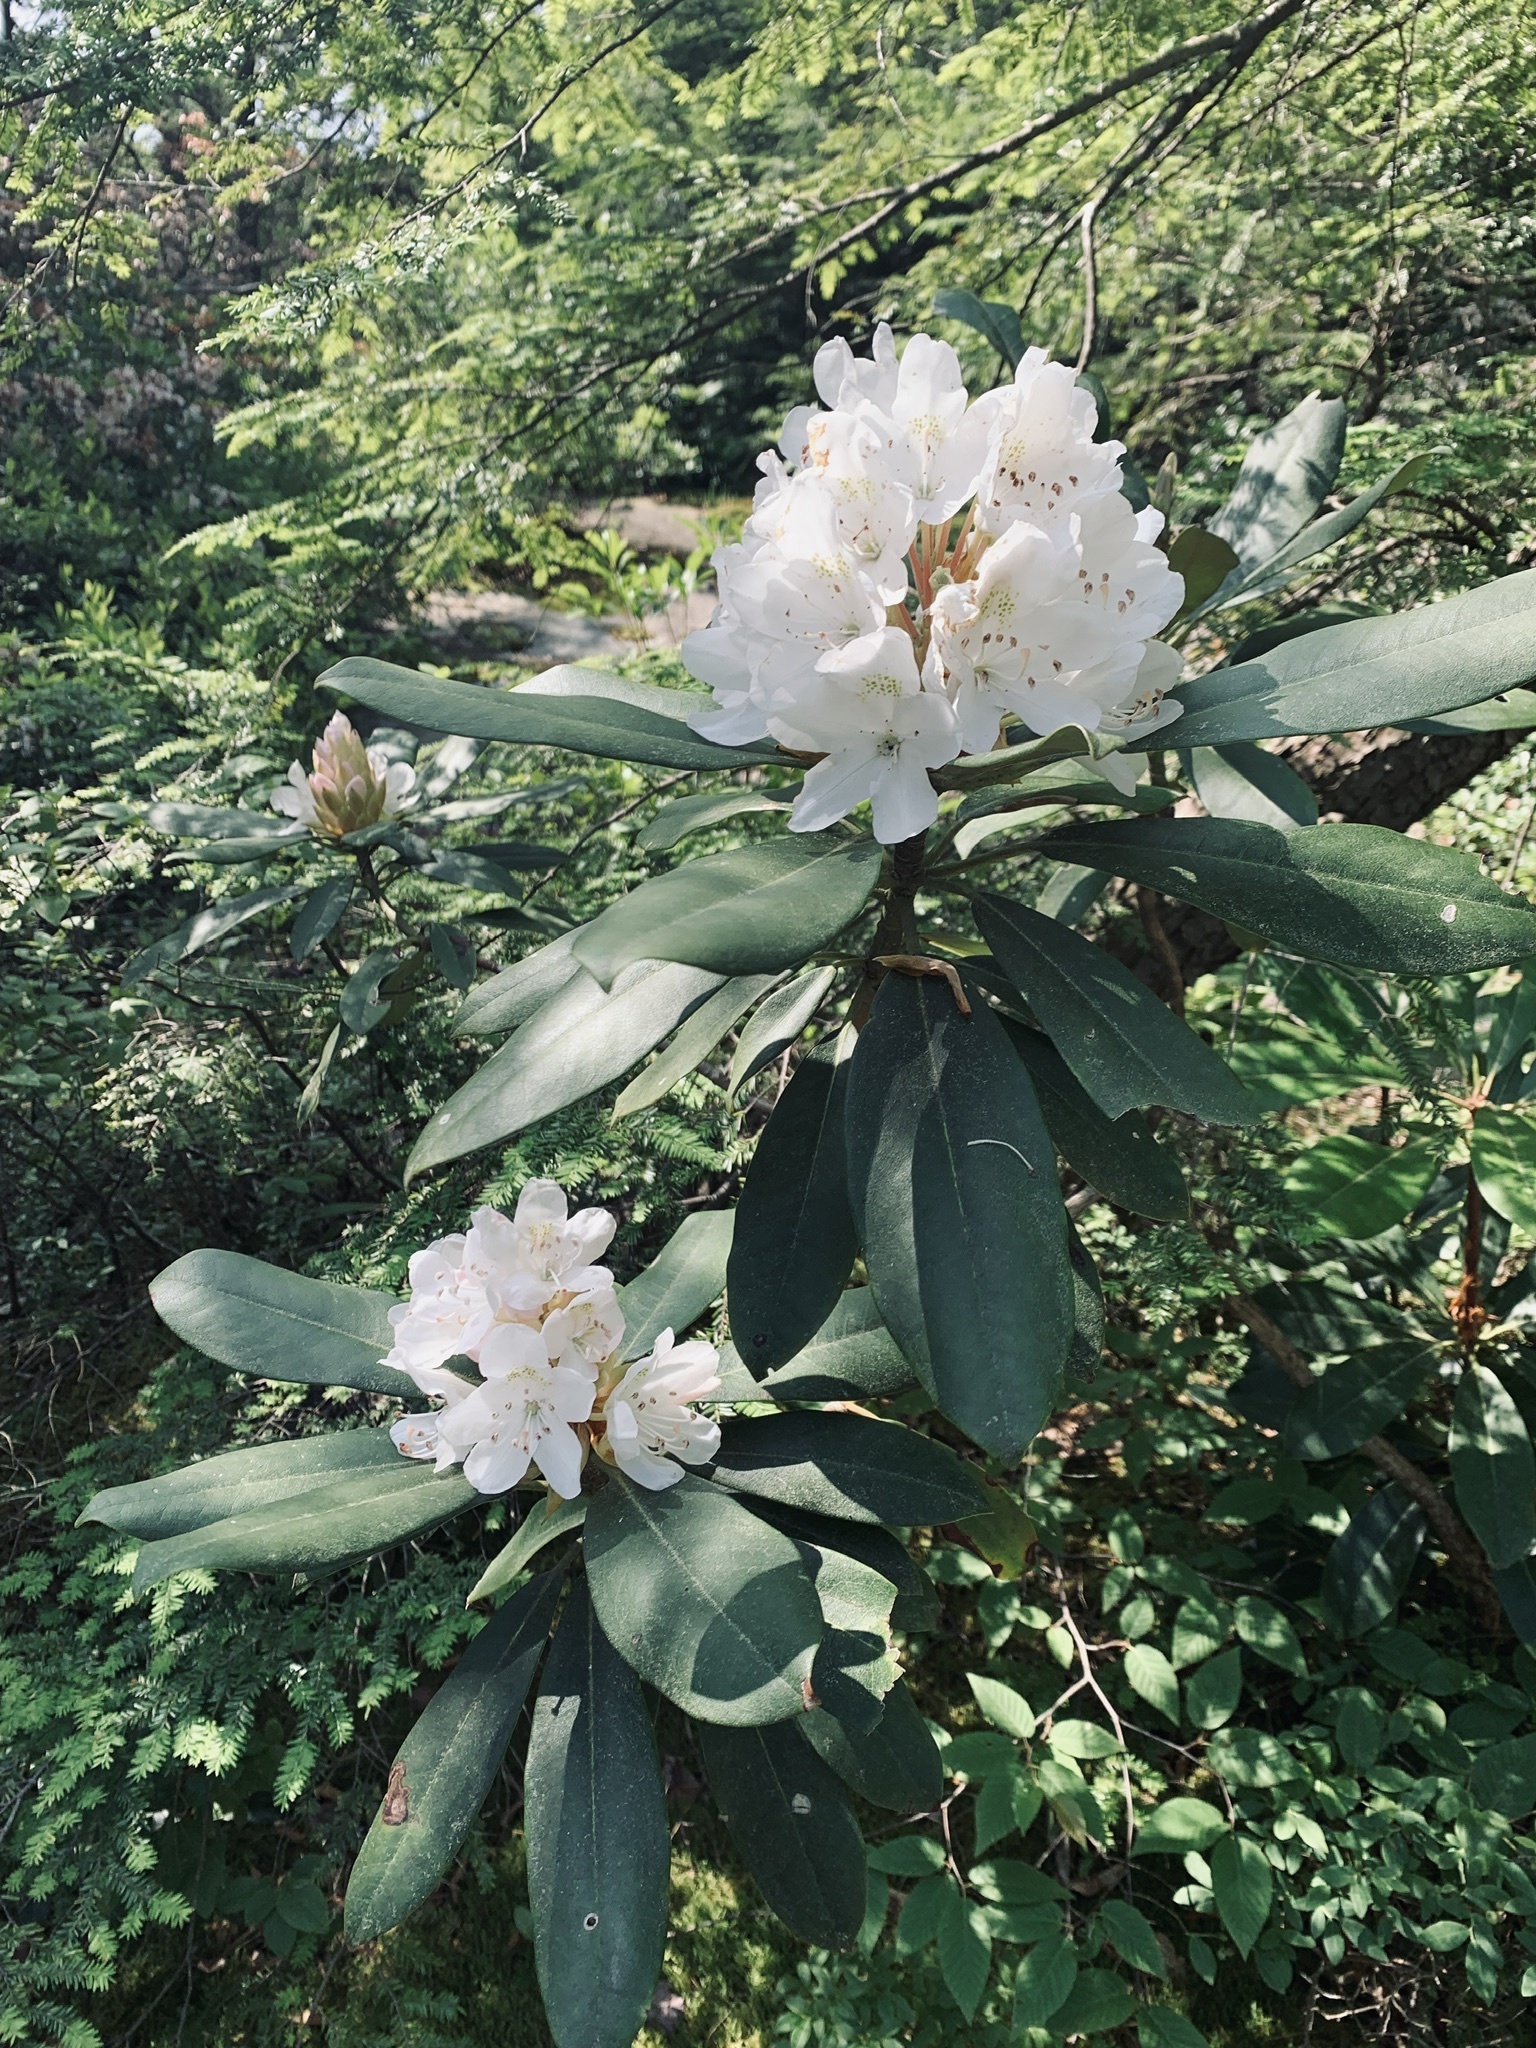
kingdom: Plantae
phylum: Tracheophyta
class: Magnoliopsida
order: Ericales
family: Ericaceae
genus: Rhododendron
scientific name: Rhododendron maximum
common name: Great rhododendron
